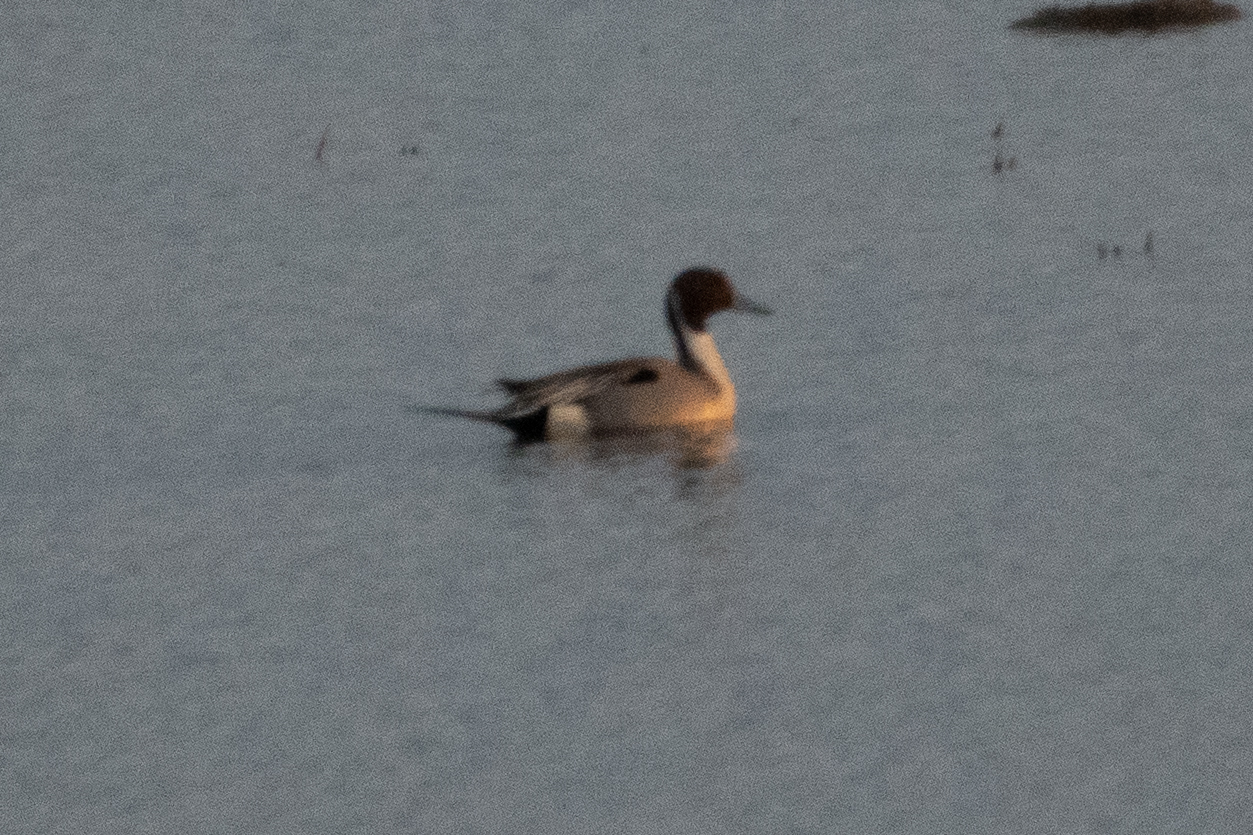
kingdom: Animalia
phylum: Chordata
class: Aves
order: Anseriformes
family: Anatidae
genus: Anas
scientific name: Anas acuta
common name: Northern pintail
